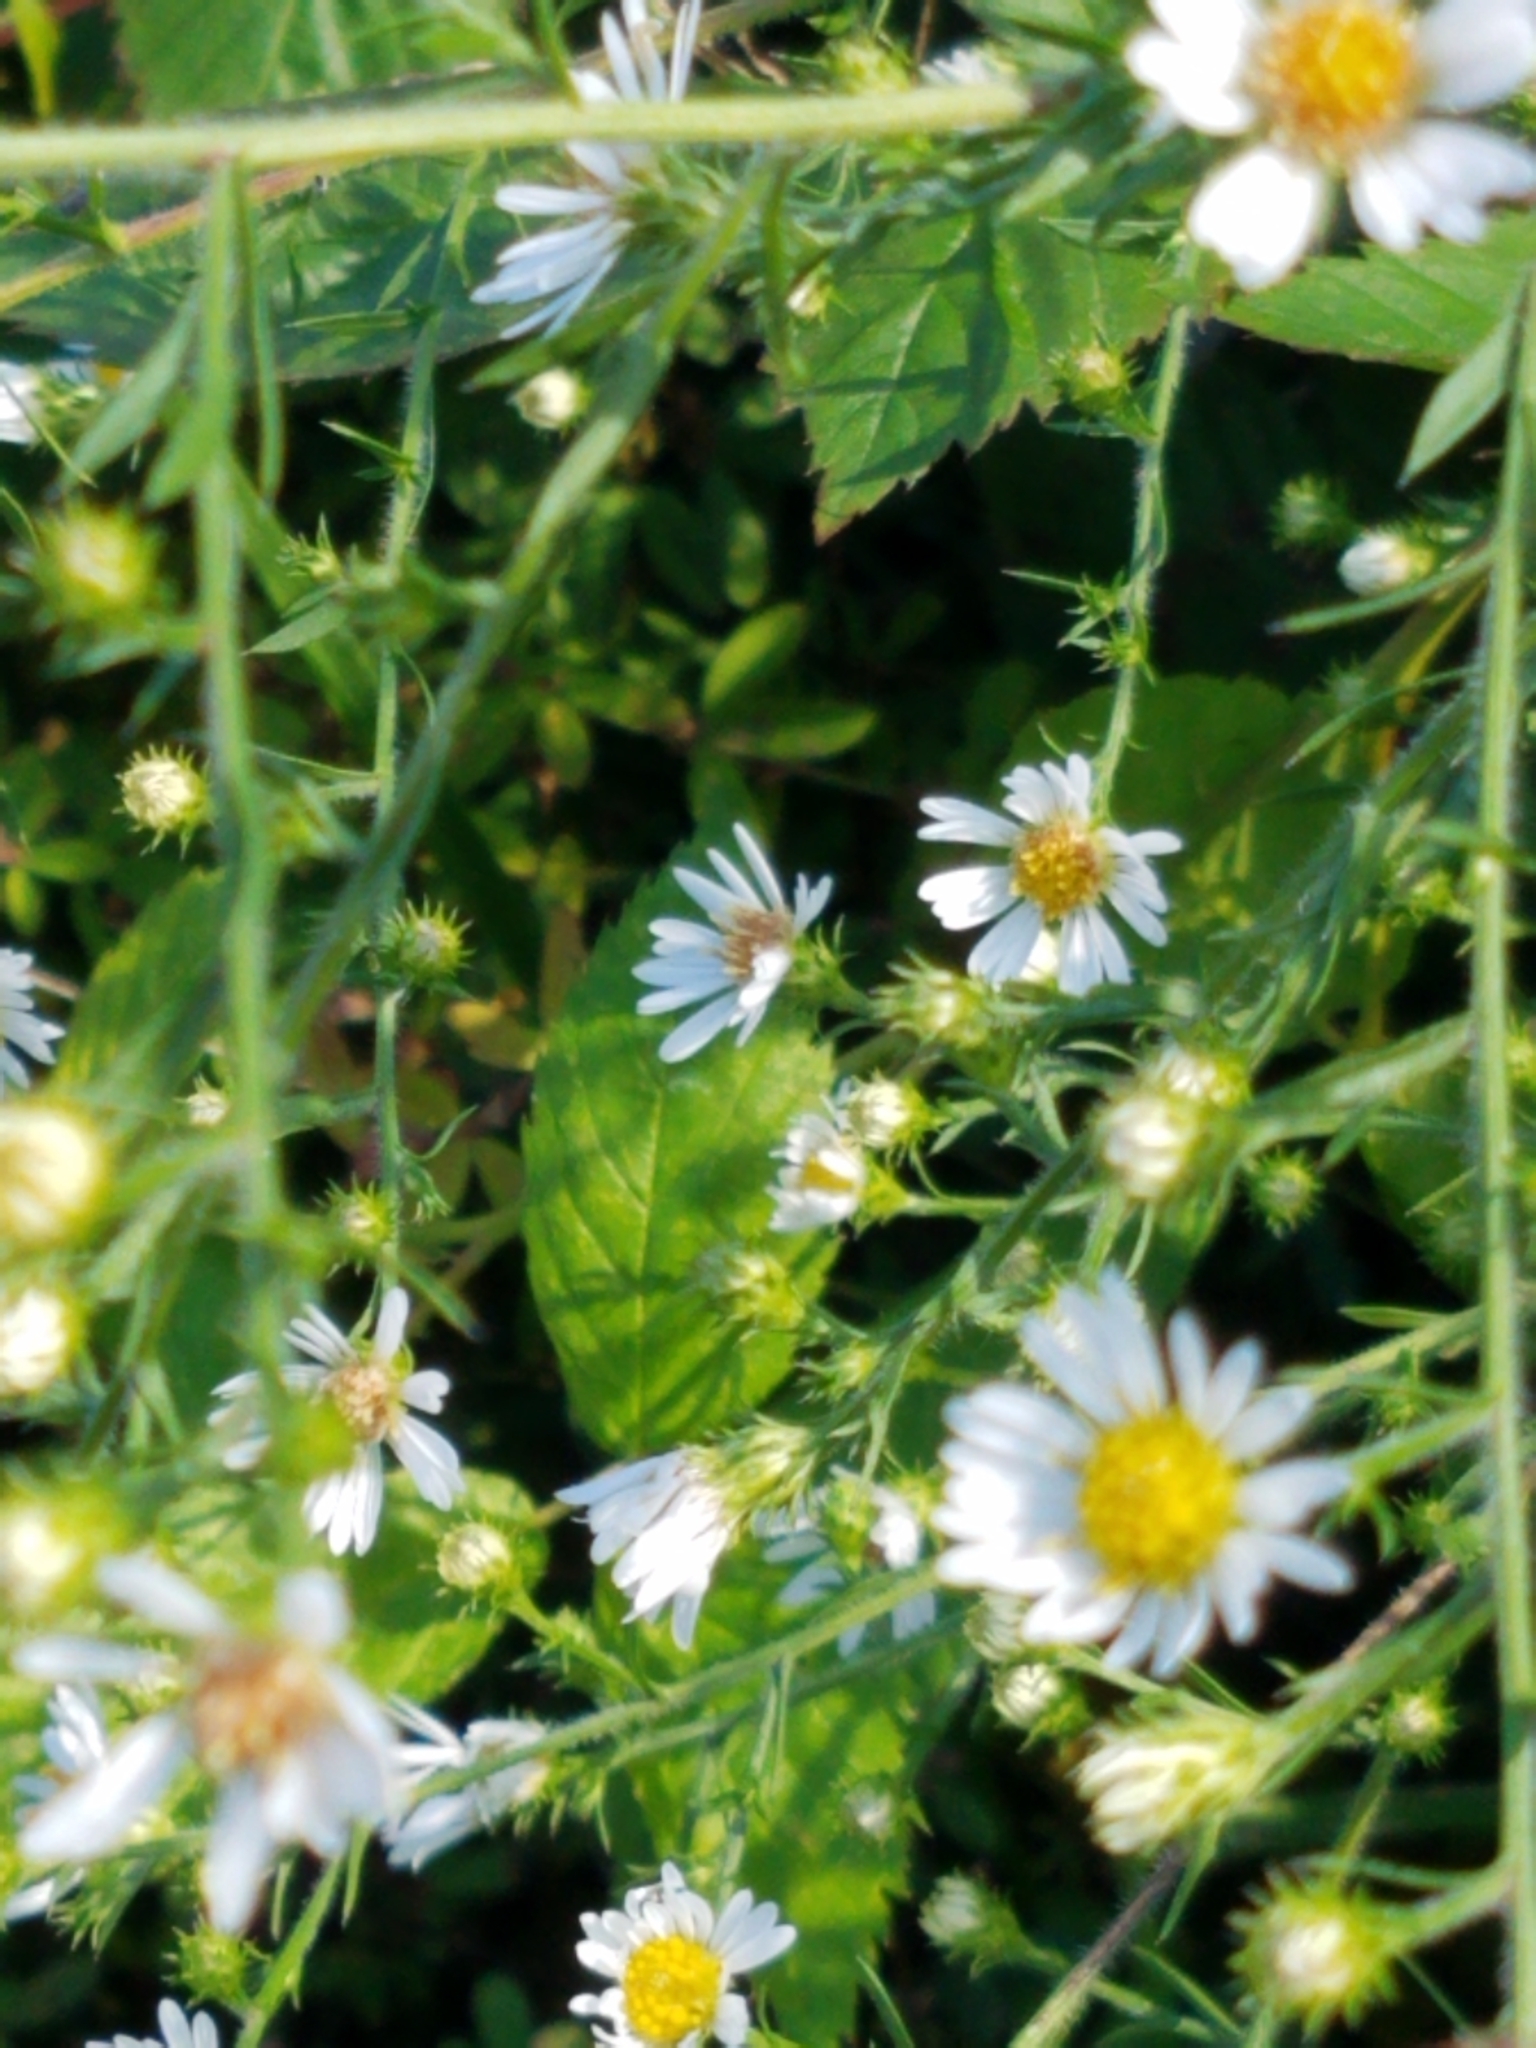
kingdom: Plantae
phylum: Tracheophyta
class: Magnoliopsida
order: Asterales
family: Asteraceae
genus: Symphyotrichum
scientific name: Symphyotrichum pilosum
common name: Awl aster
